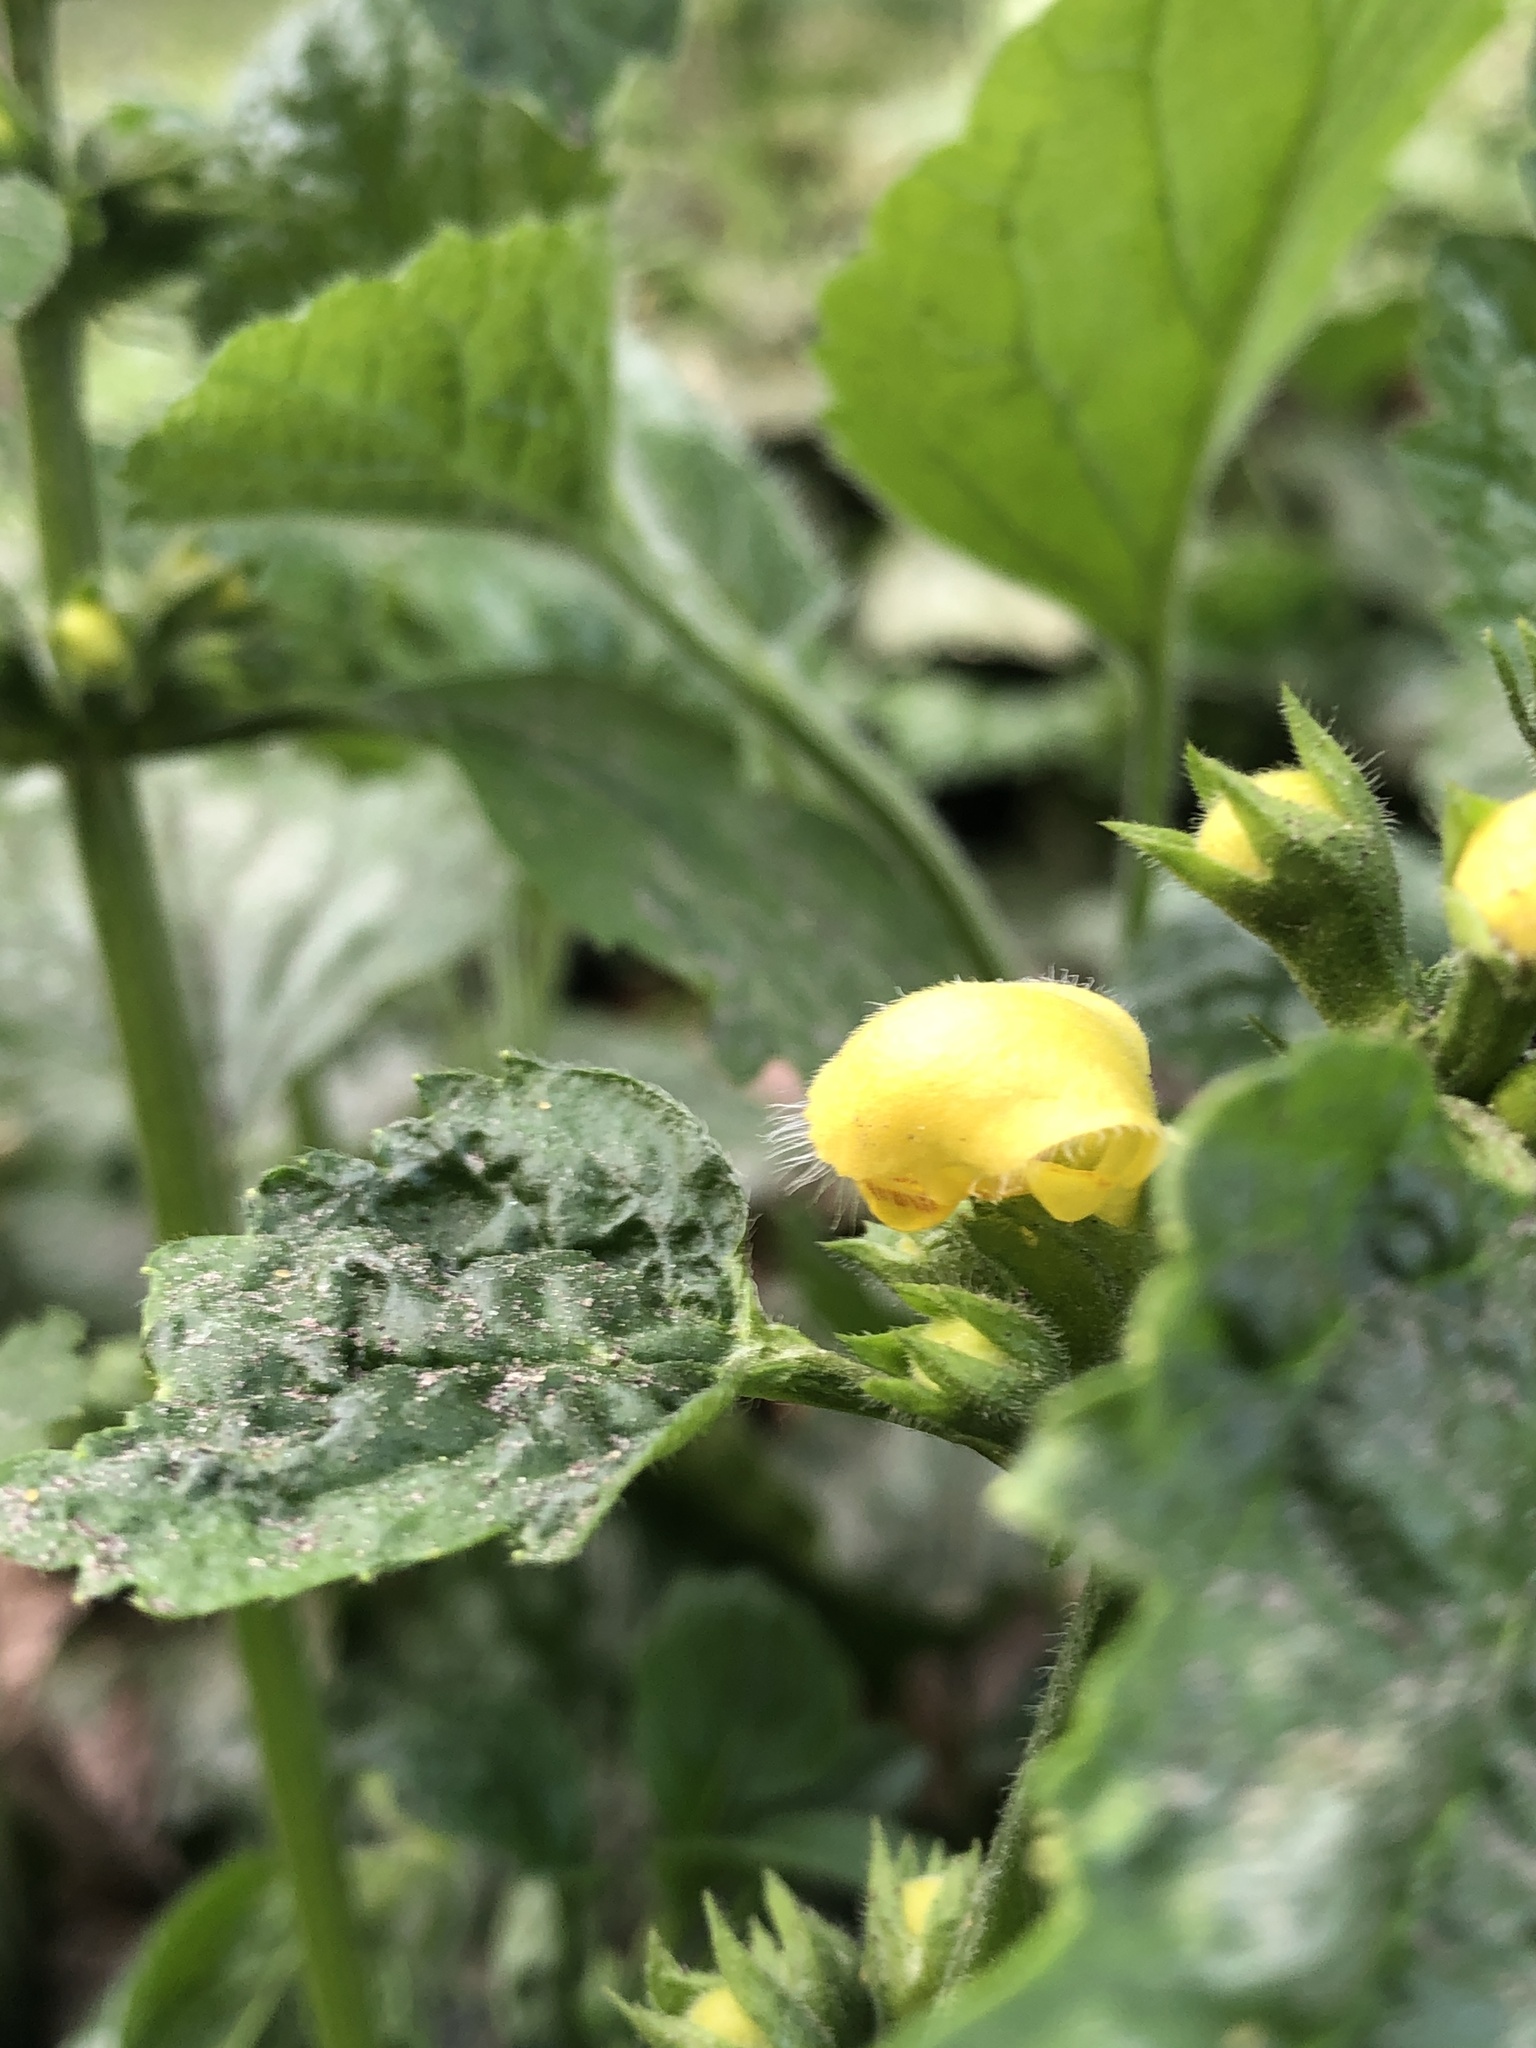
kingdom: Plantae
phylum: Tracheophyta
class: Magnoliopsida
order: Lamiales
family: Lamiaceae
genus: Lamium
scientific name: Lamium galeobdolon
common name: Yellow archangel
